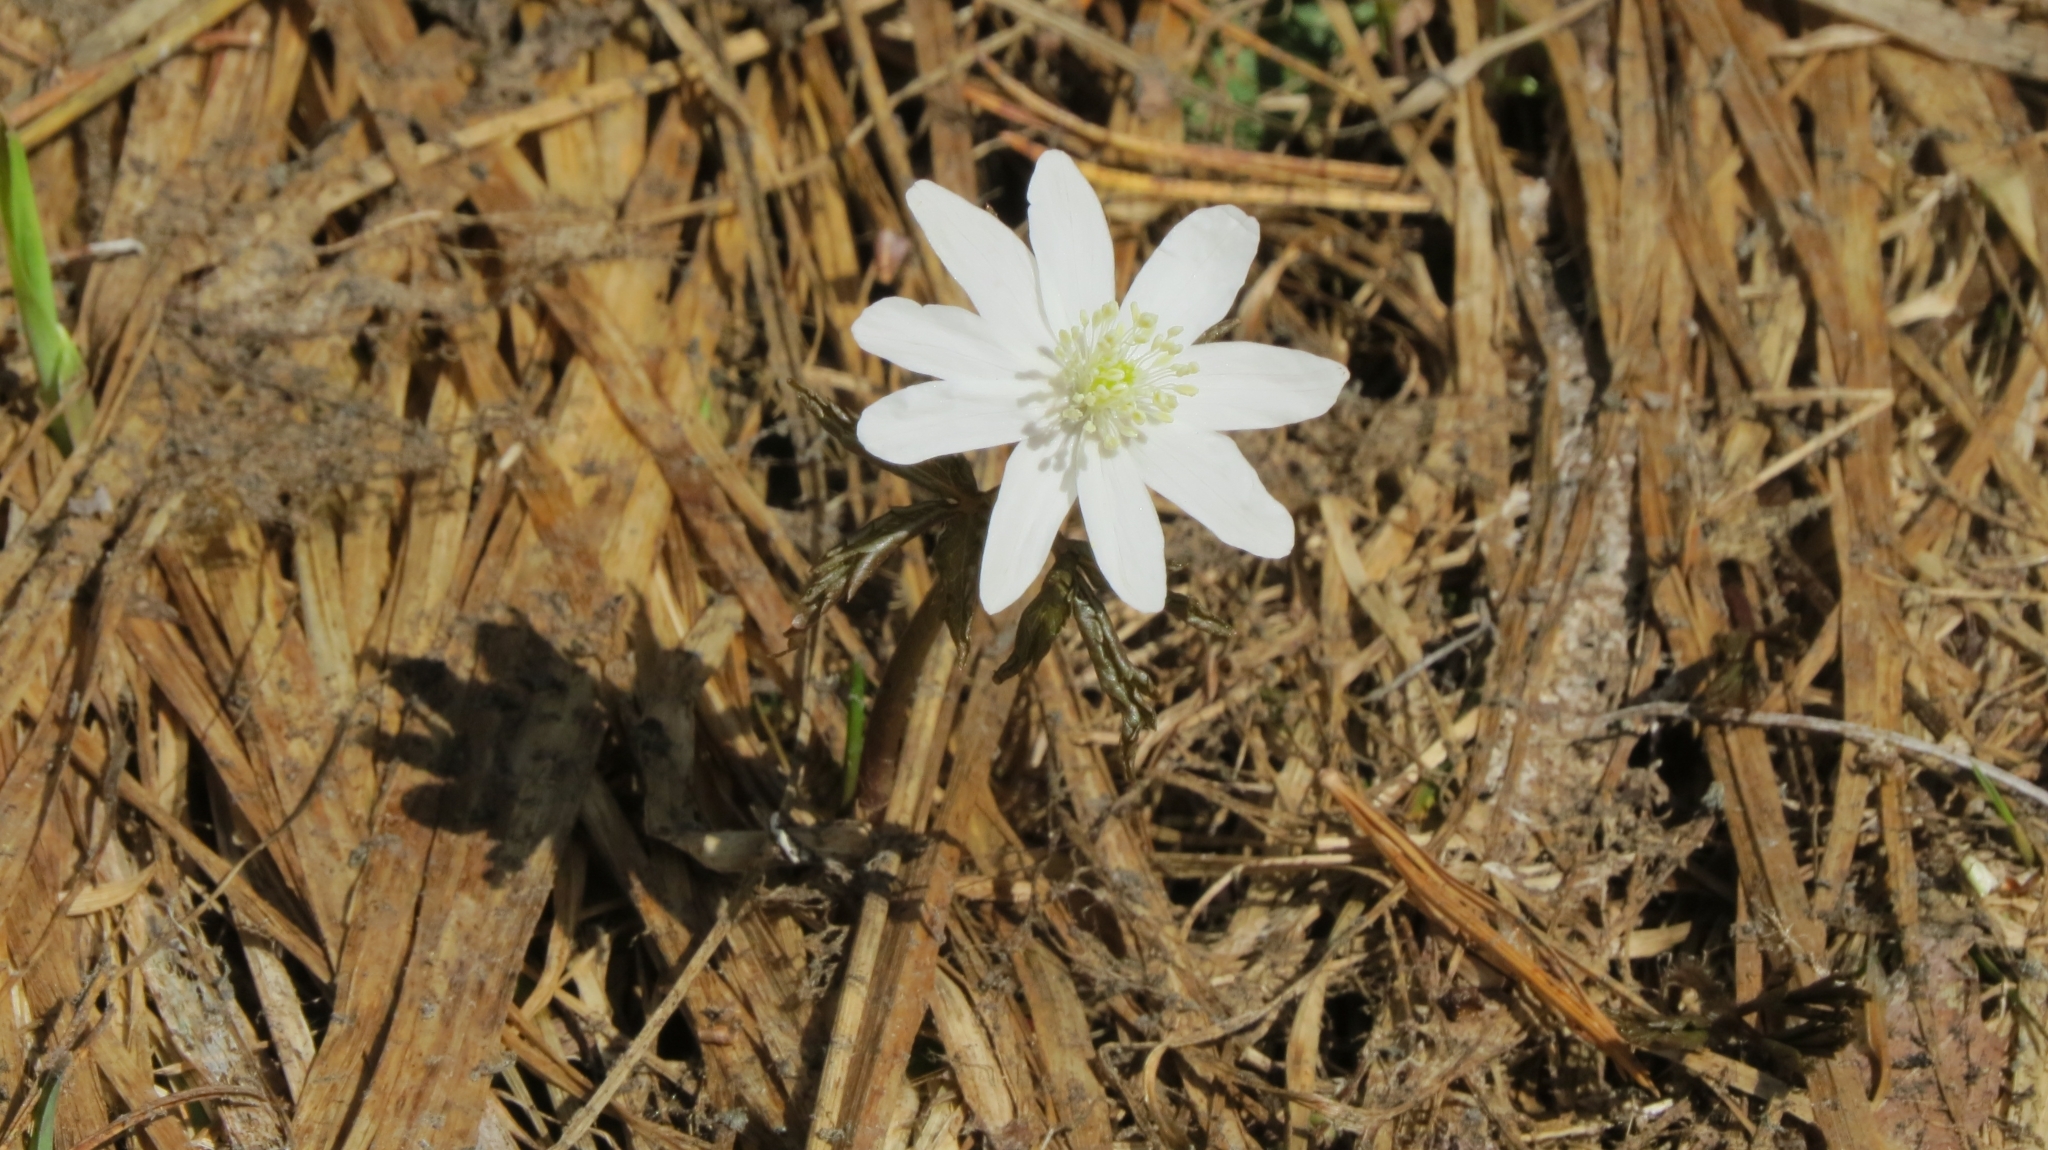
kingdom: Plantae
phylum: Tracheophyta
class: Magnoliopsida
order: Ranunculales
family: Ranunculaceae
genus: Anemone
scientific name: Anemone altaica
